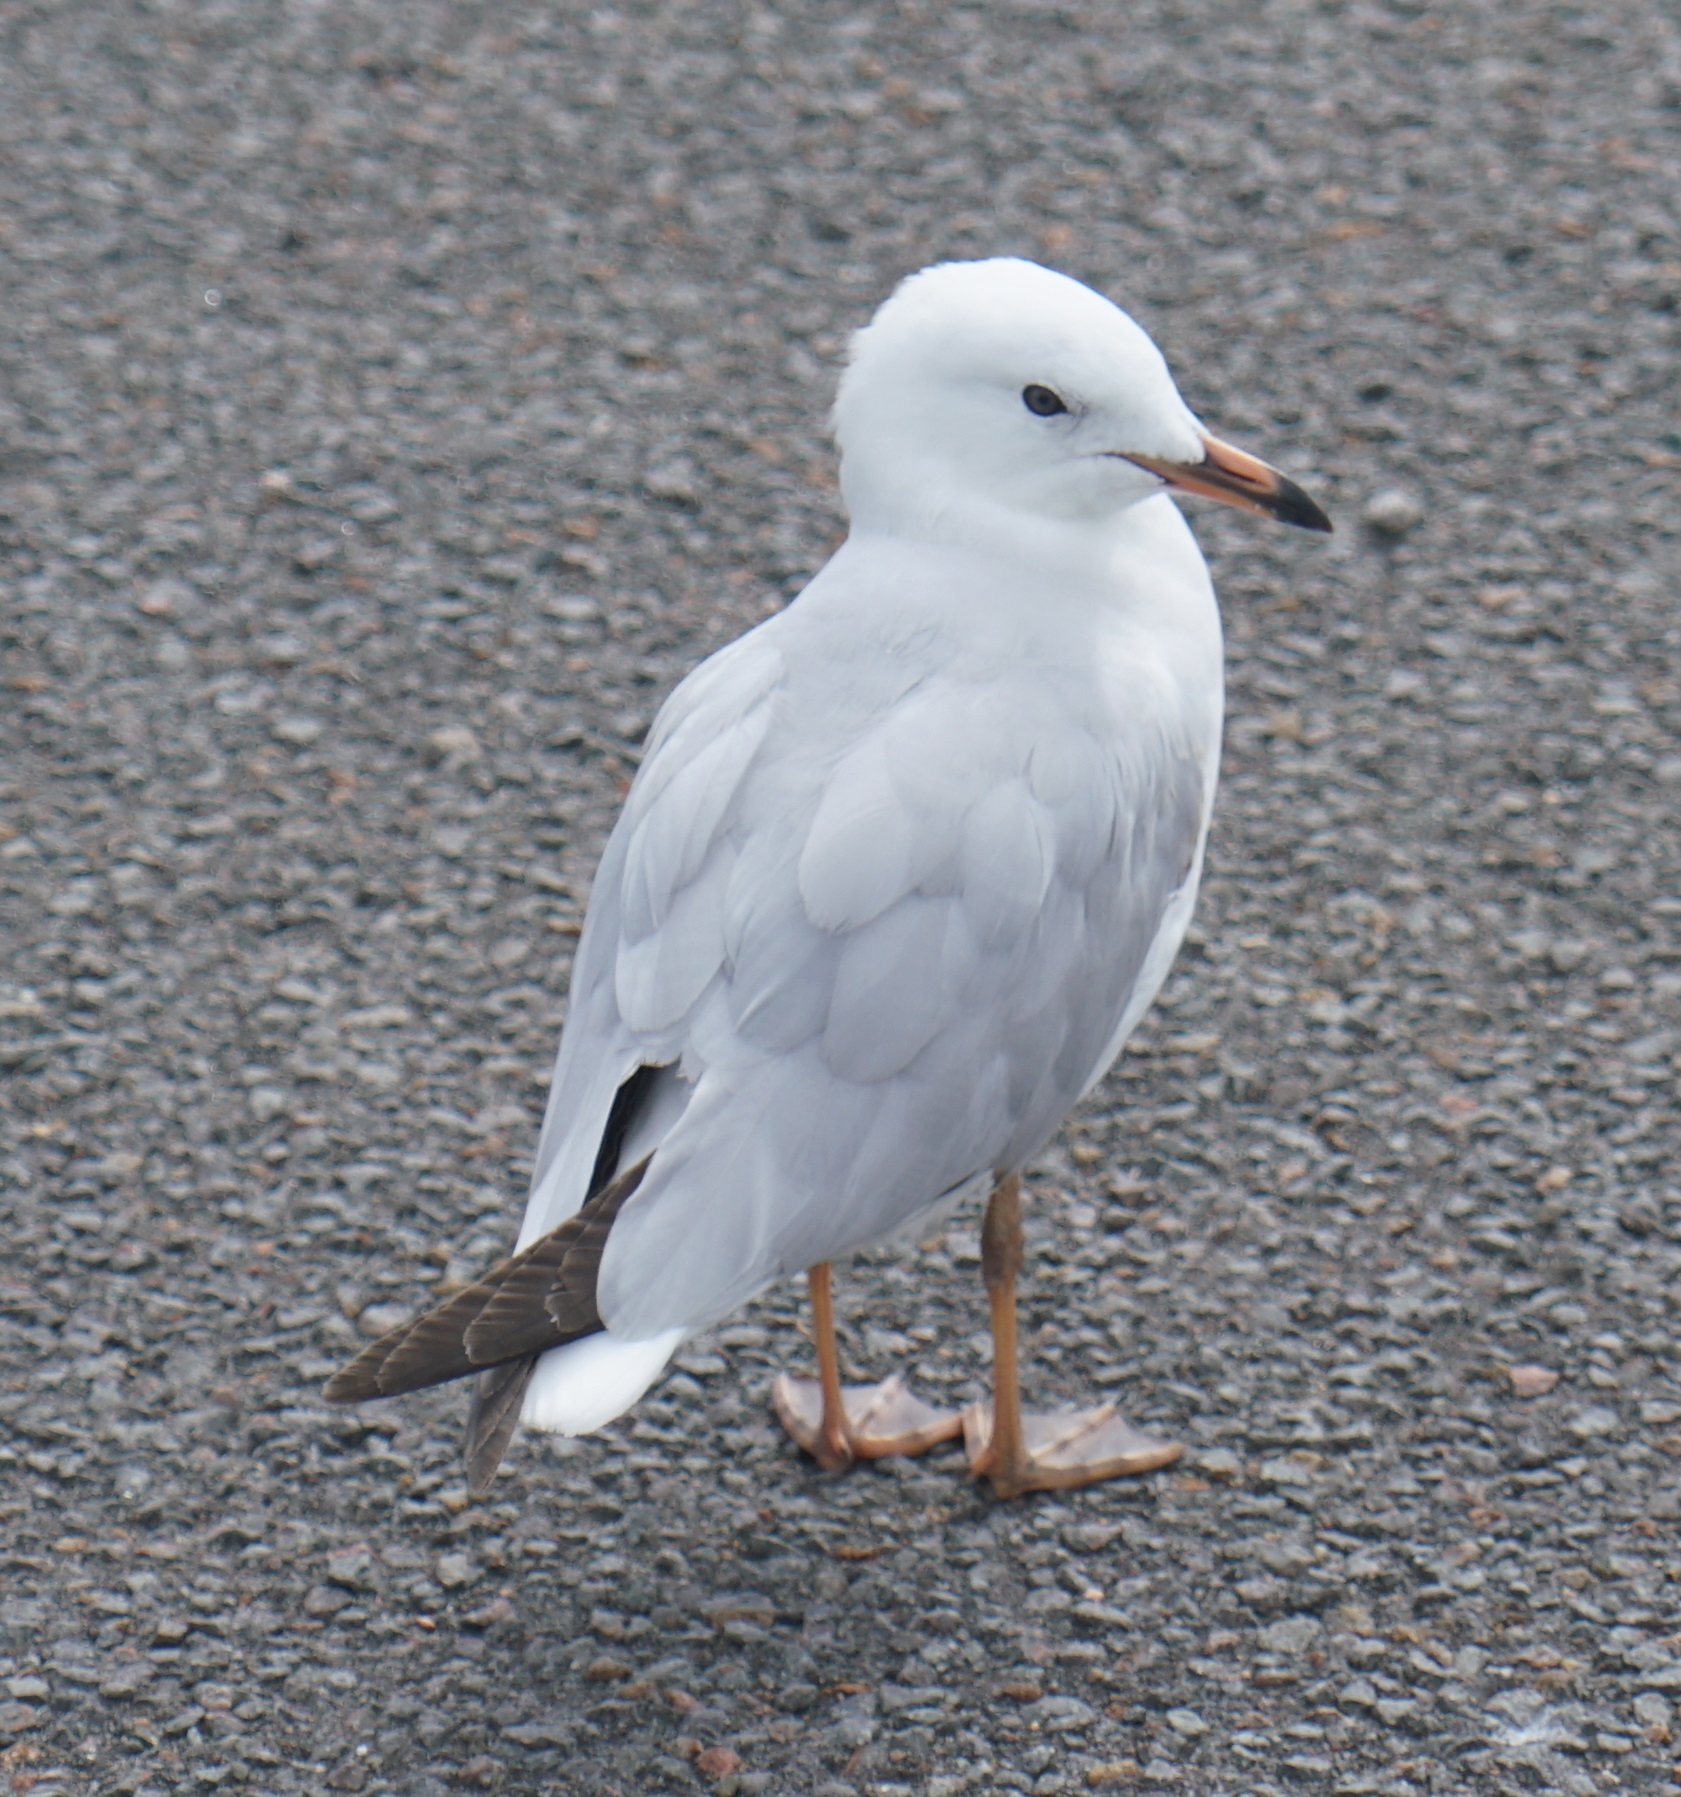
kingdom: Animalia
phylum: Chordata
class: Aves
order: Charadriiformes
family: Laridae
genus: Chroicocephalus
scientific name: Chroicocephalus novaehollandiae
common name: Silver gull
